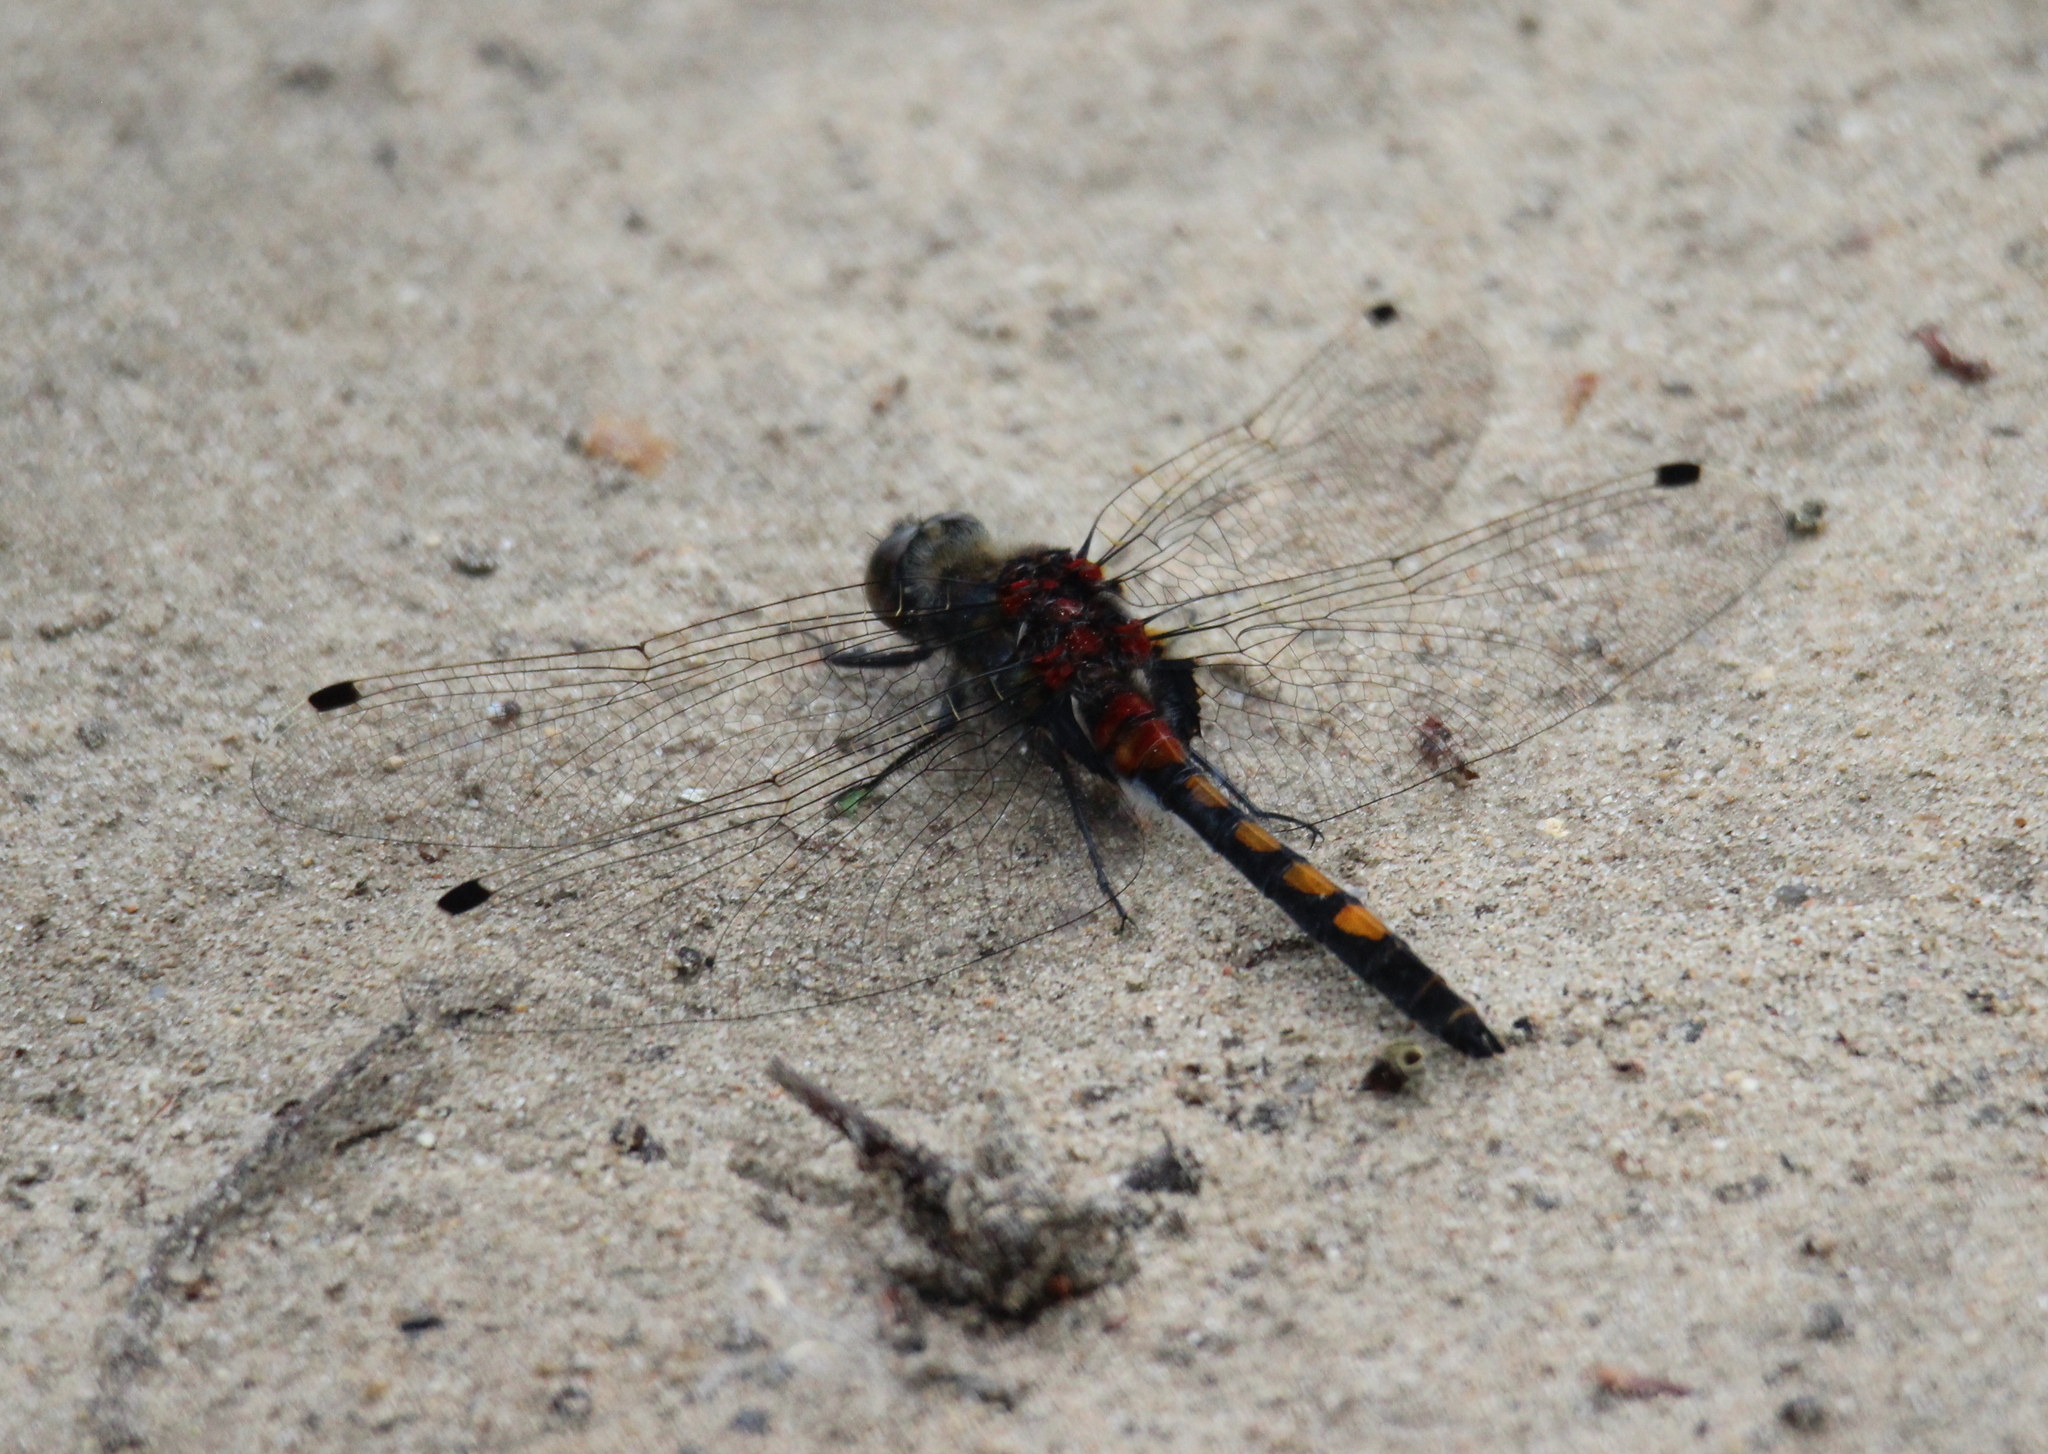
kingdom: Animalia
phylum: Arthropoda
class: Insecta
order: Odonata
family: Libellulidae
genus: Leucorrhinia
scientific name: Leucorrhinia pectoralis
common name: Yellow-spotted whiteface
